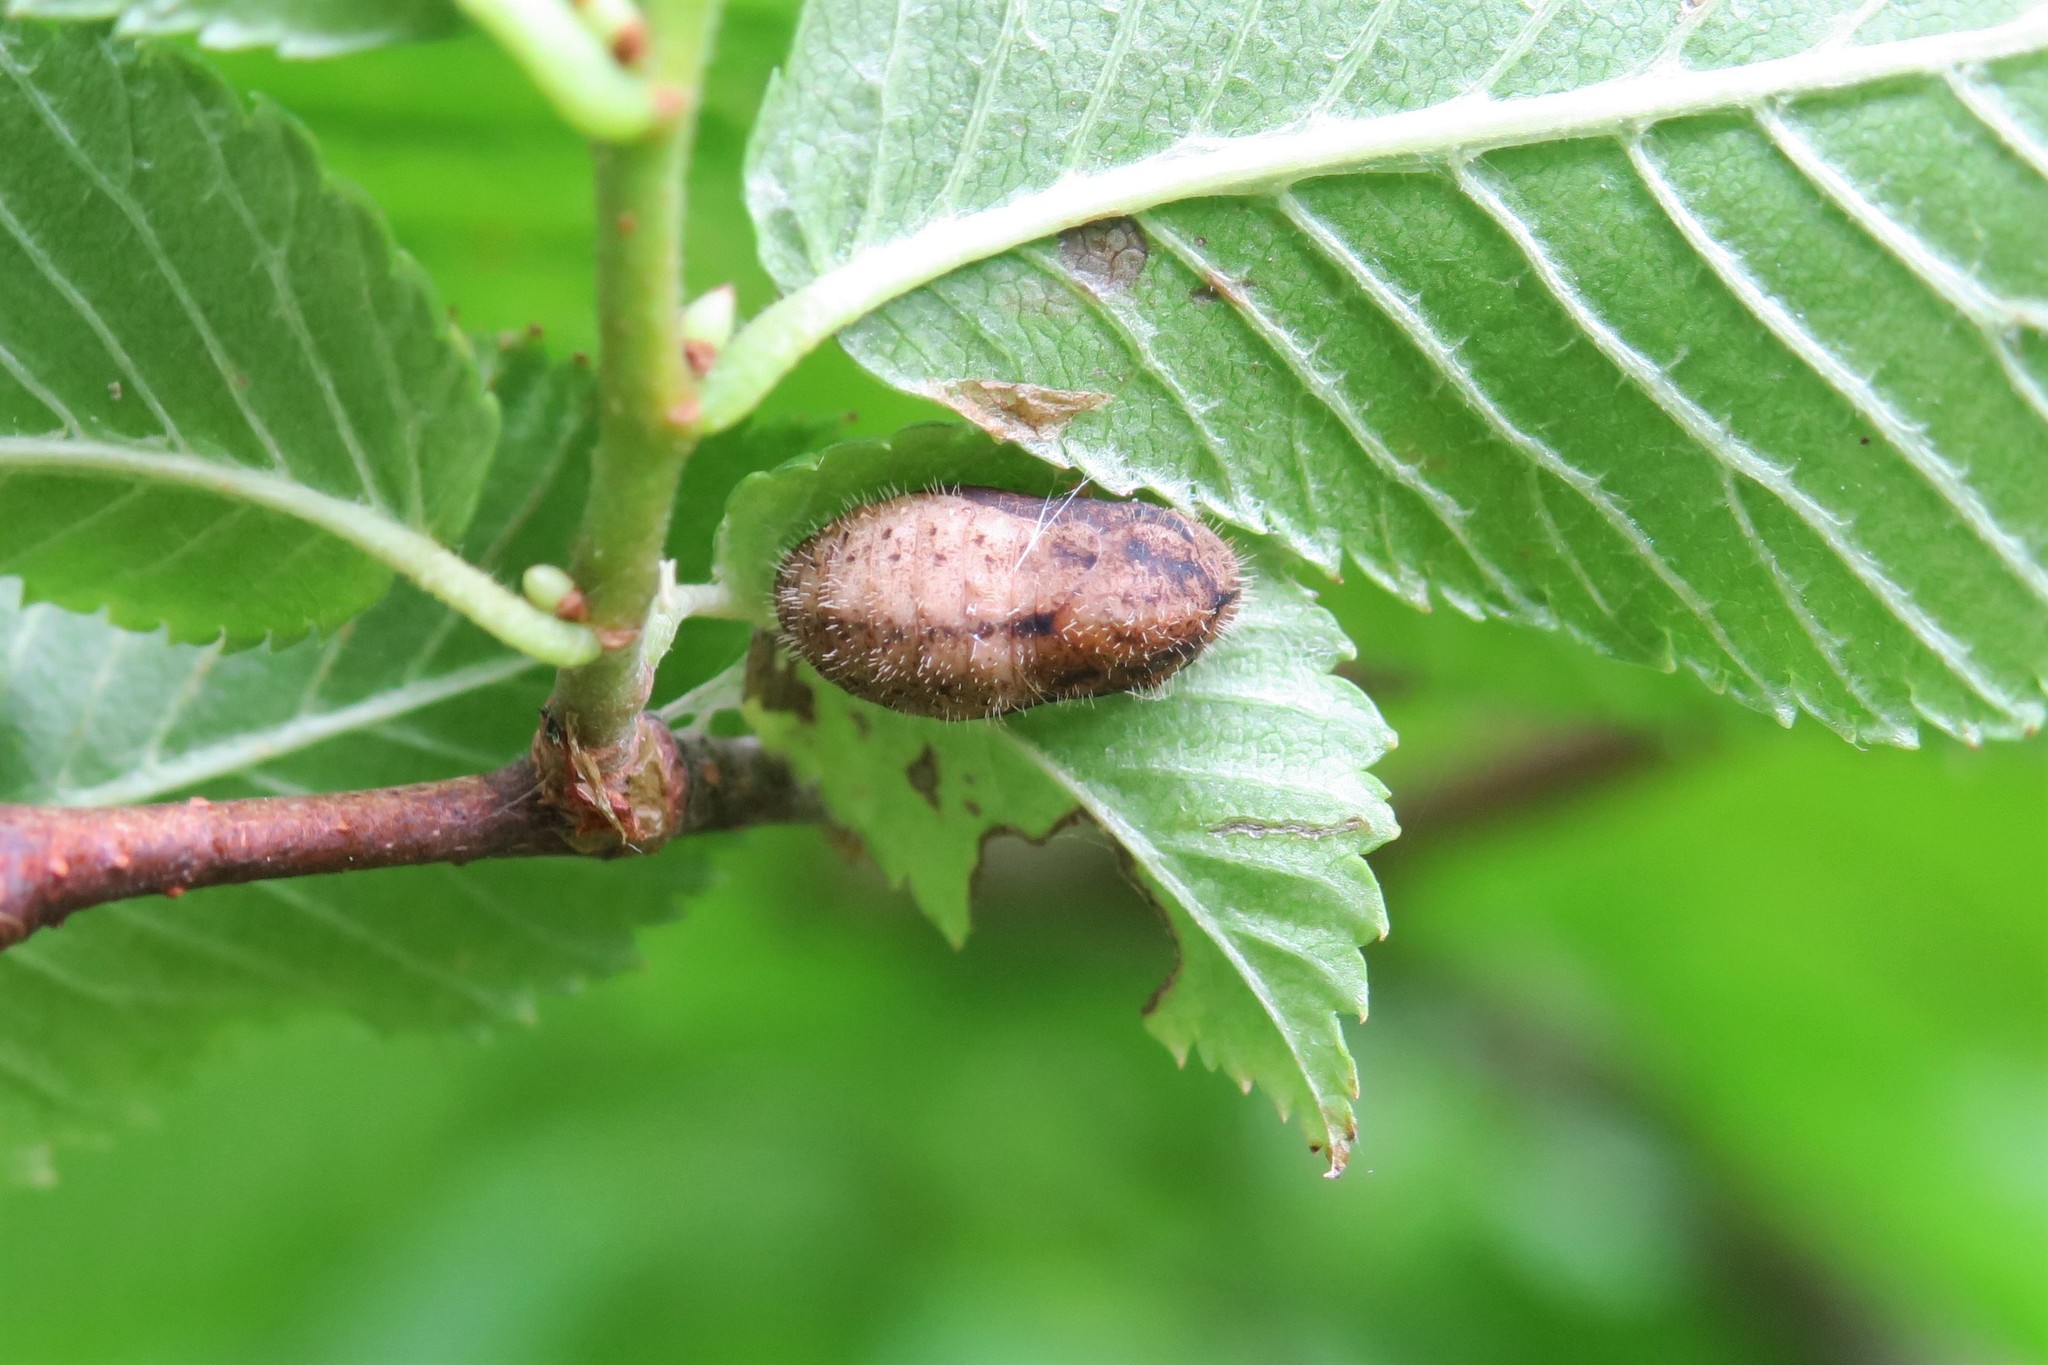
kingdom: Animalia
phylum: Arthropoda
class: Insecta
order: Lepidoptera
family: Lycaenidae
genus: Satyrium
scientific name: Satyrium w-album
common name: White-letter hairstreak
